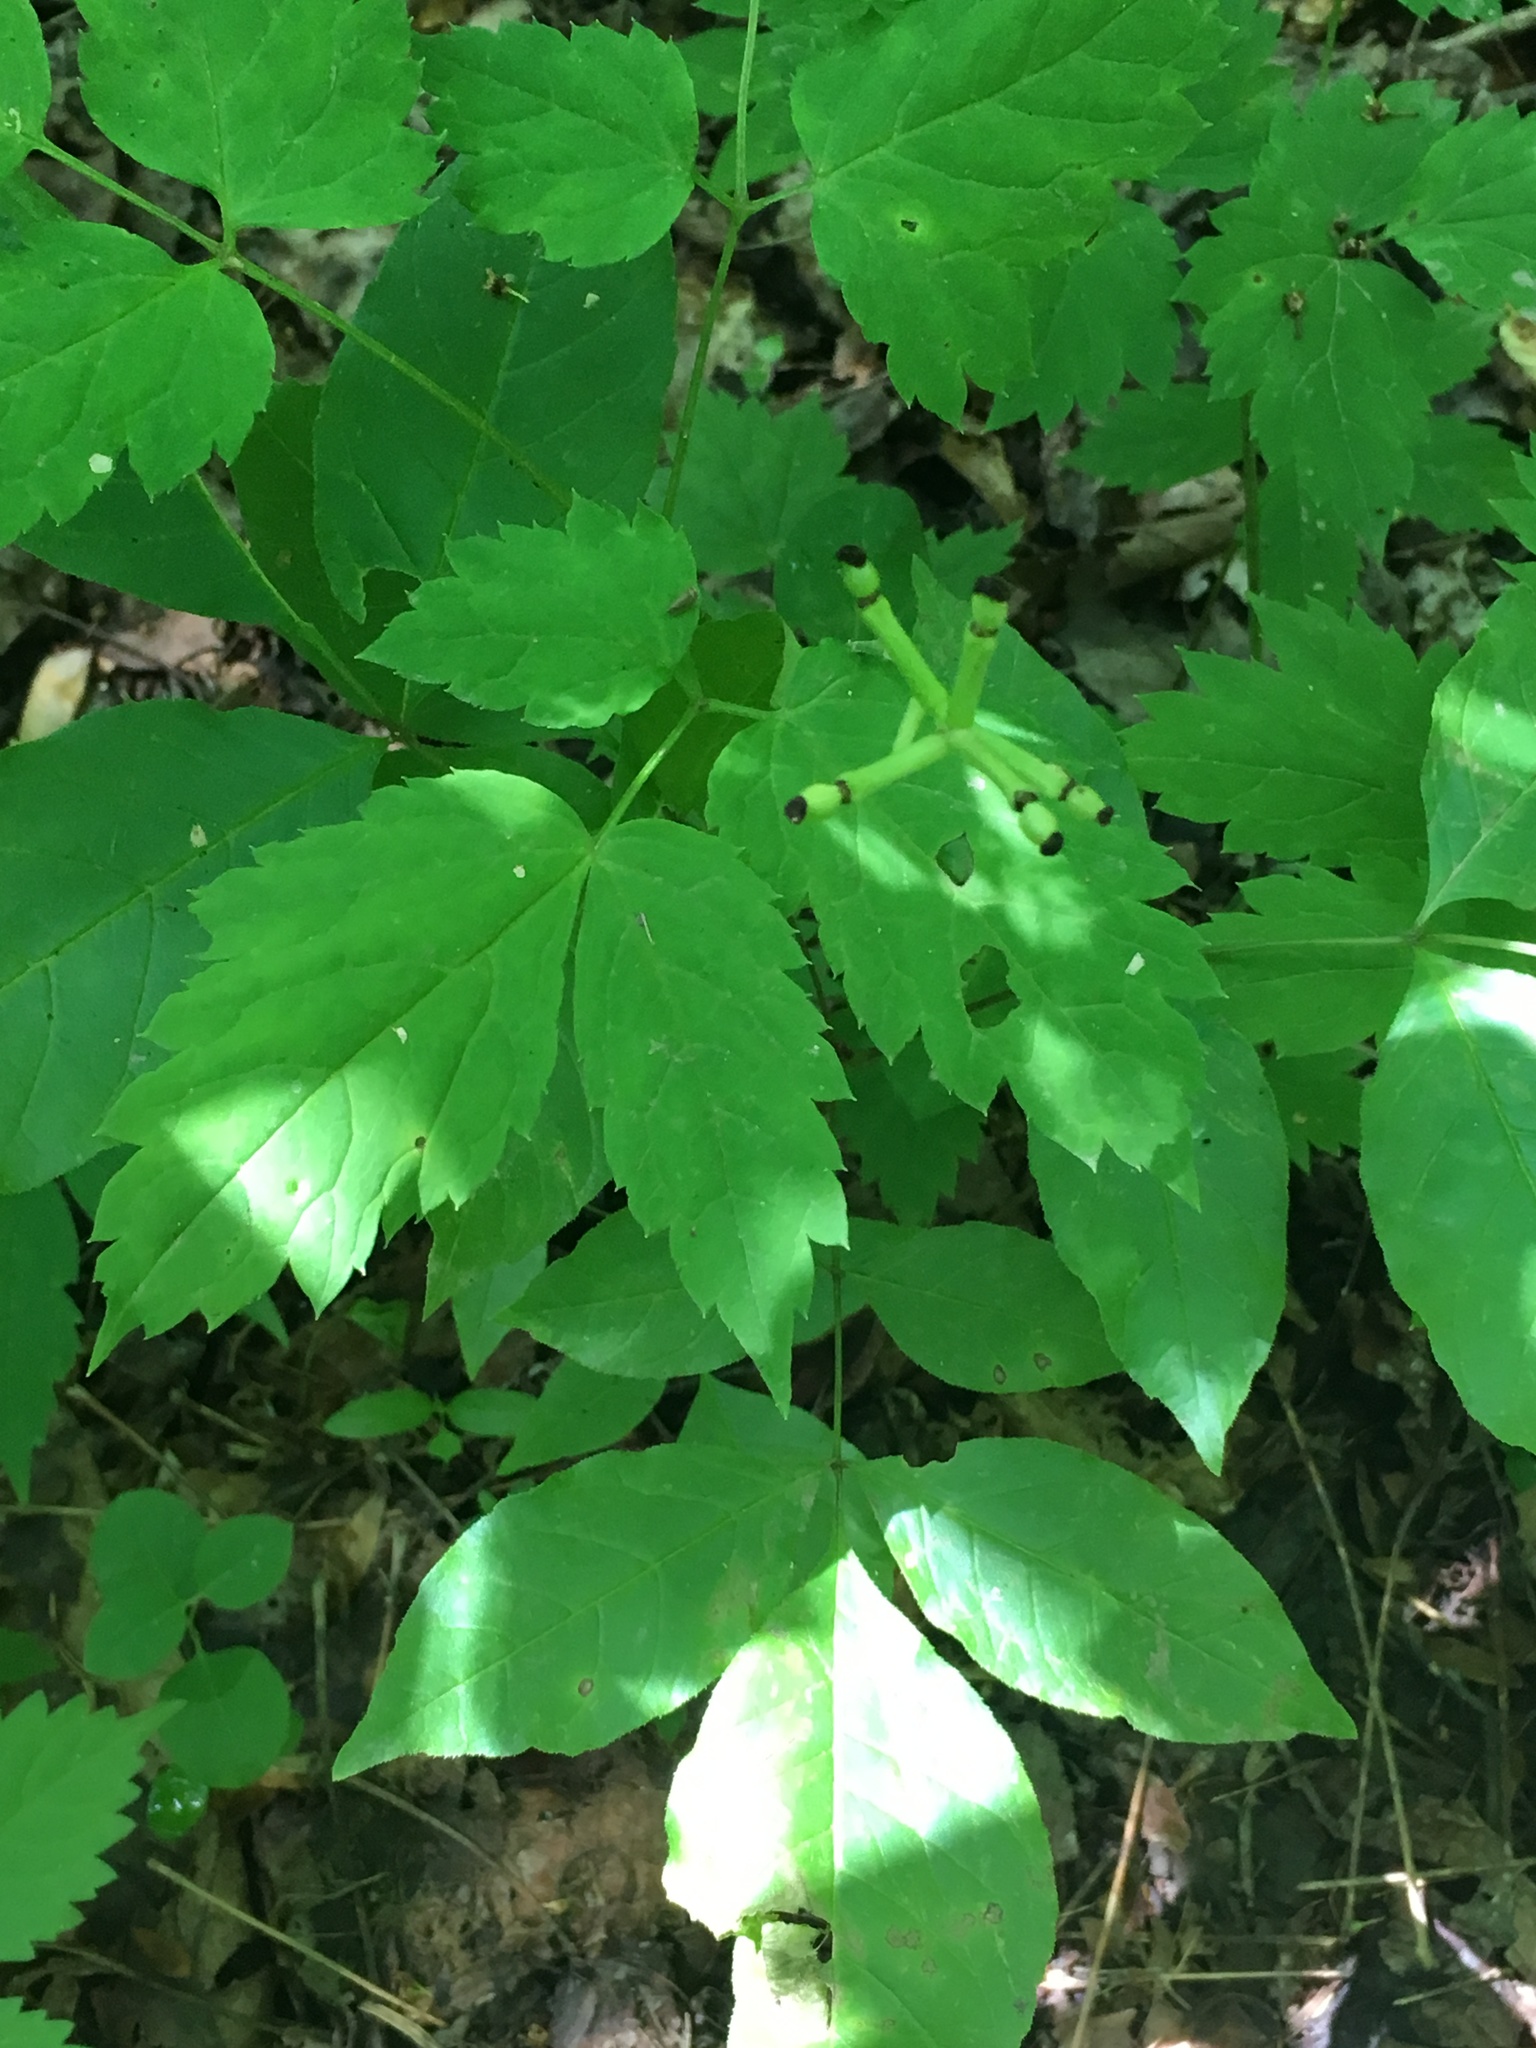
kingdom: Plantae
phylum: Tracheophyta
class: Magnoliopsida
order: Ranunculales
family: Ranunculaceae
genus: Actaea
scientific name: Actaea pachypoda
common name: Doll's-eyes
